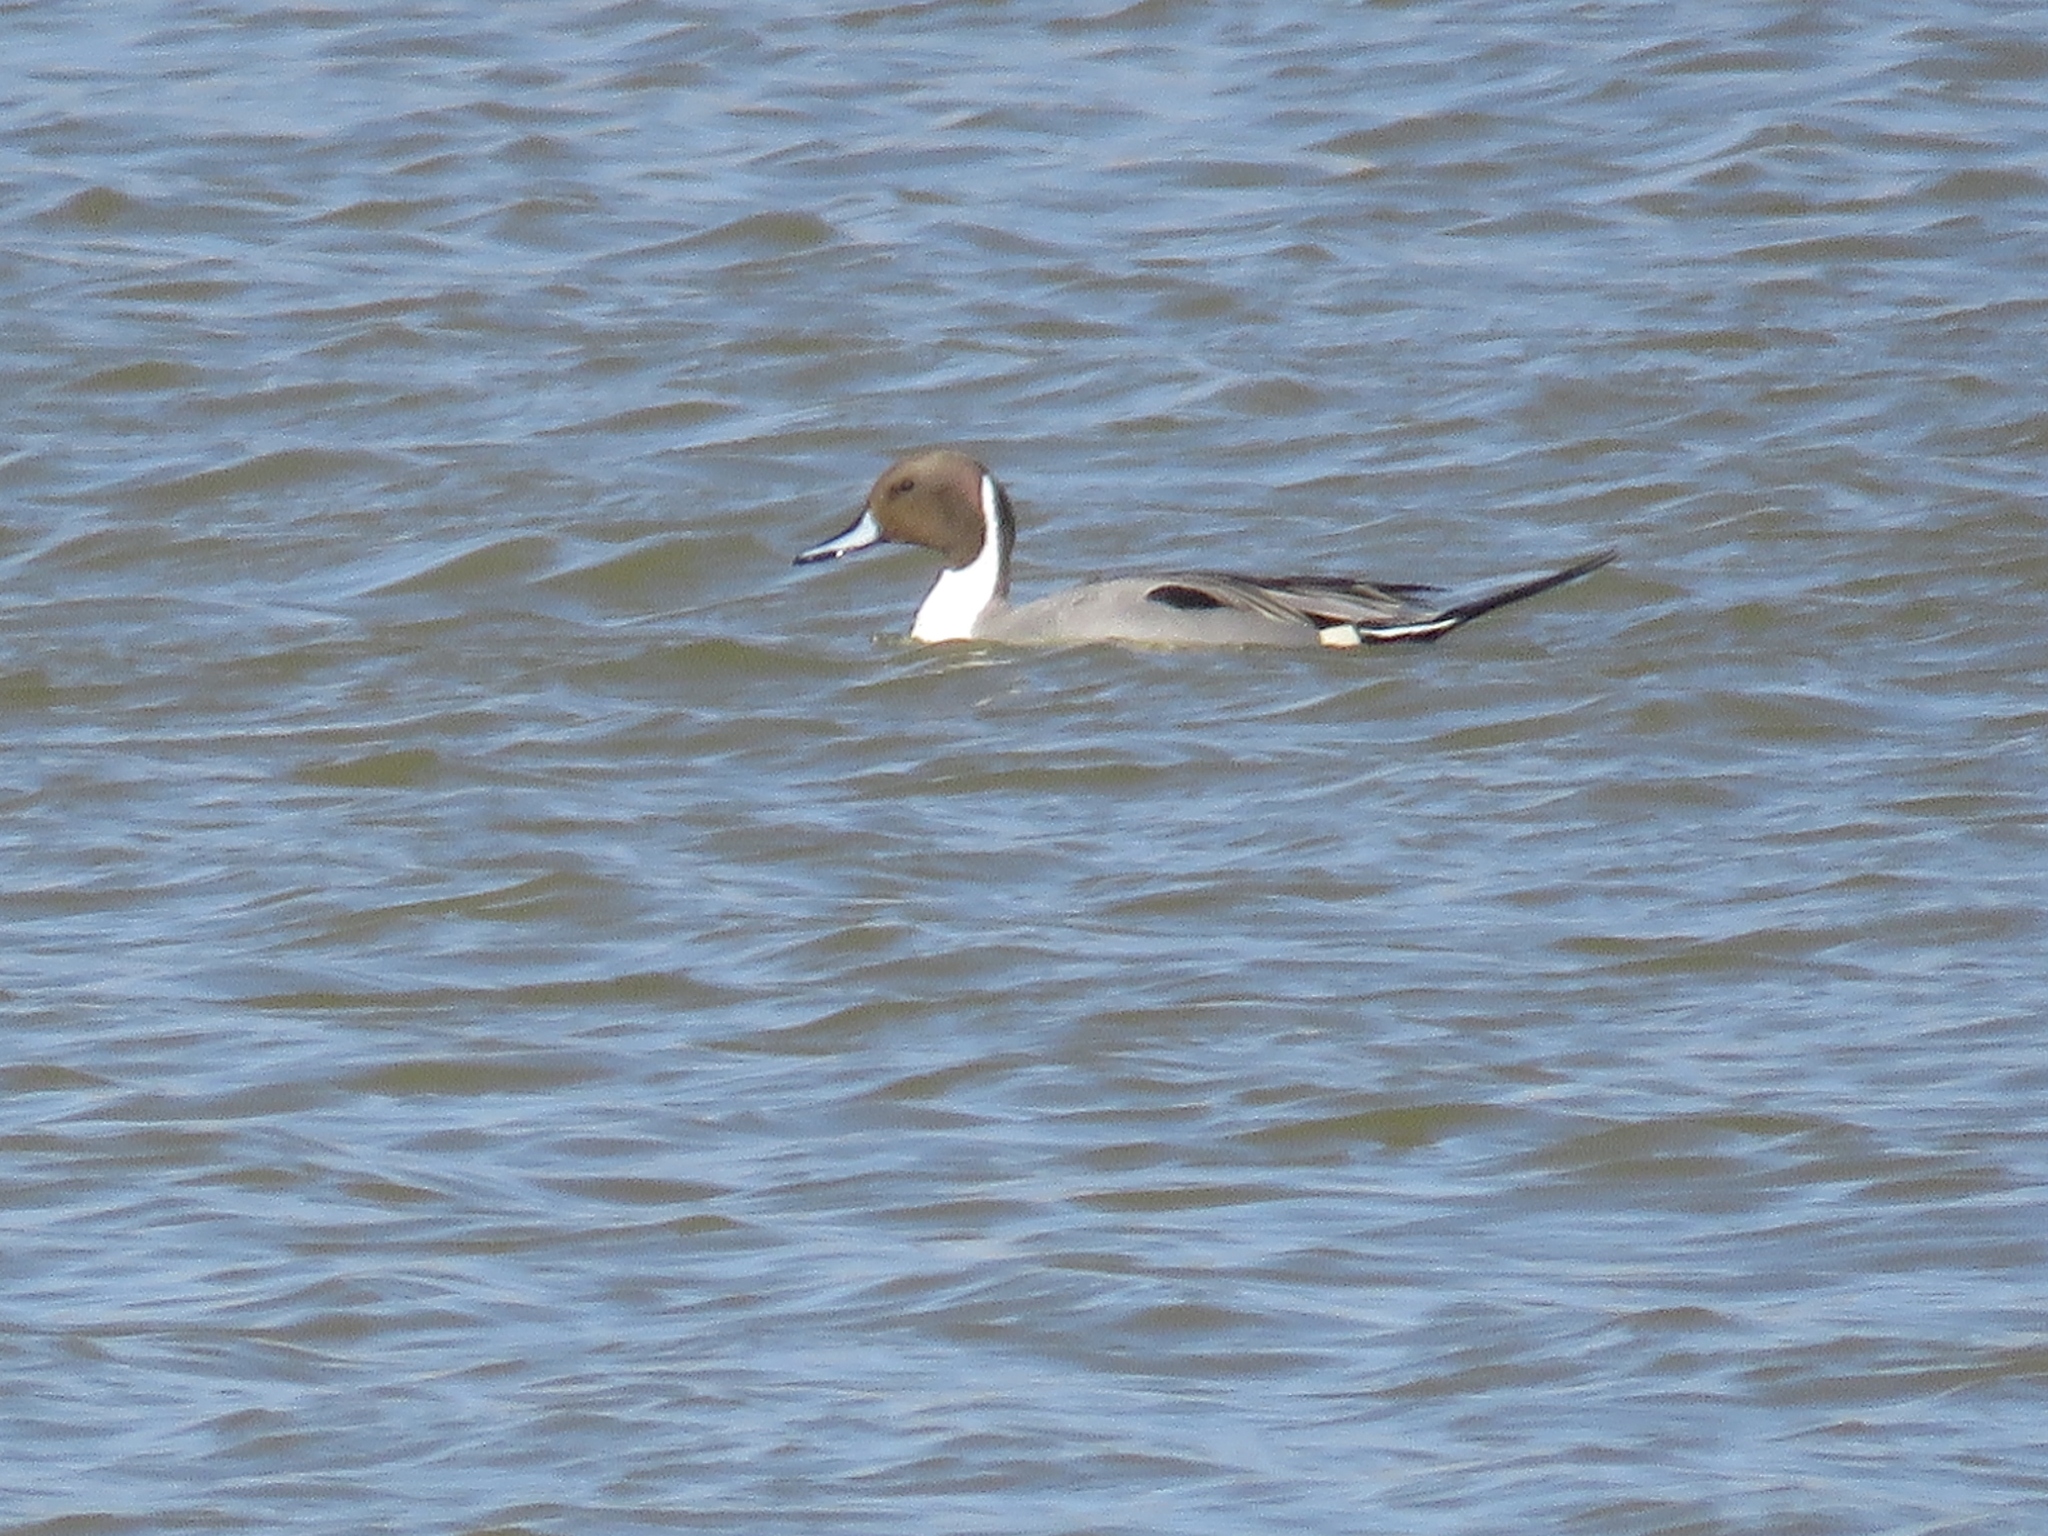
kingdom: Animalia
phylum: Chordata
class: Aves
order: Anseriformes
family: Anatidae
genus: Anas
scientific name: Anas acuta
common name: Northern pintail
